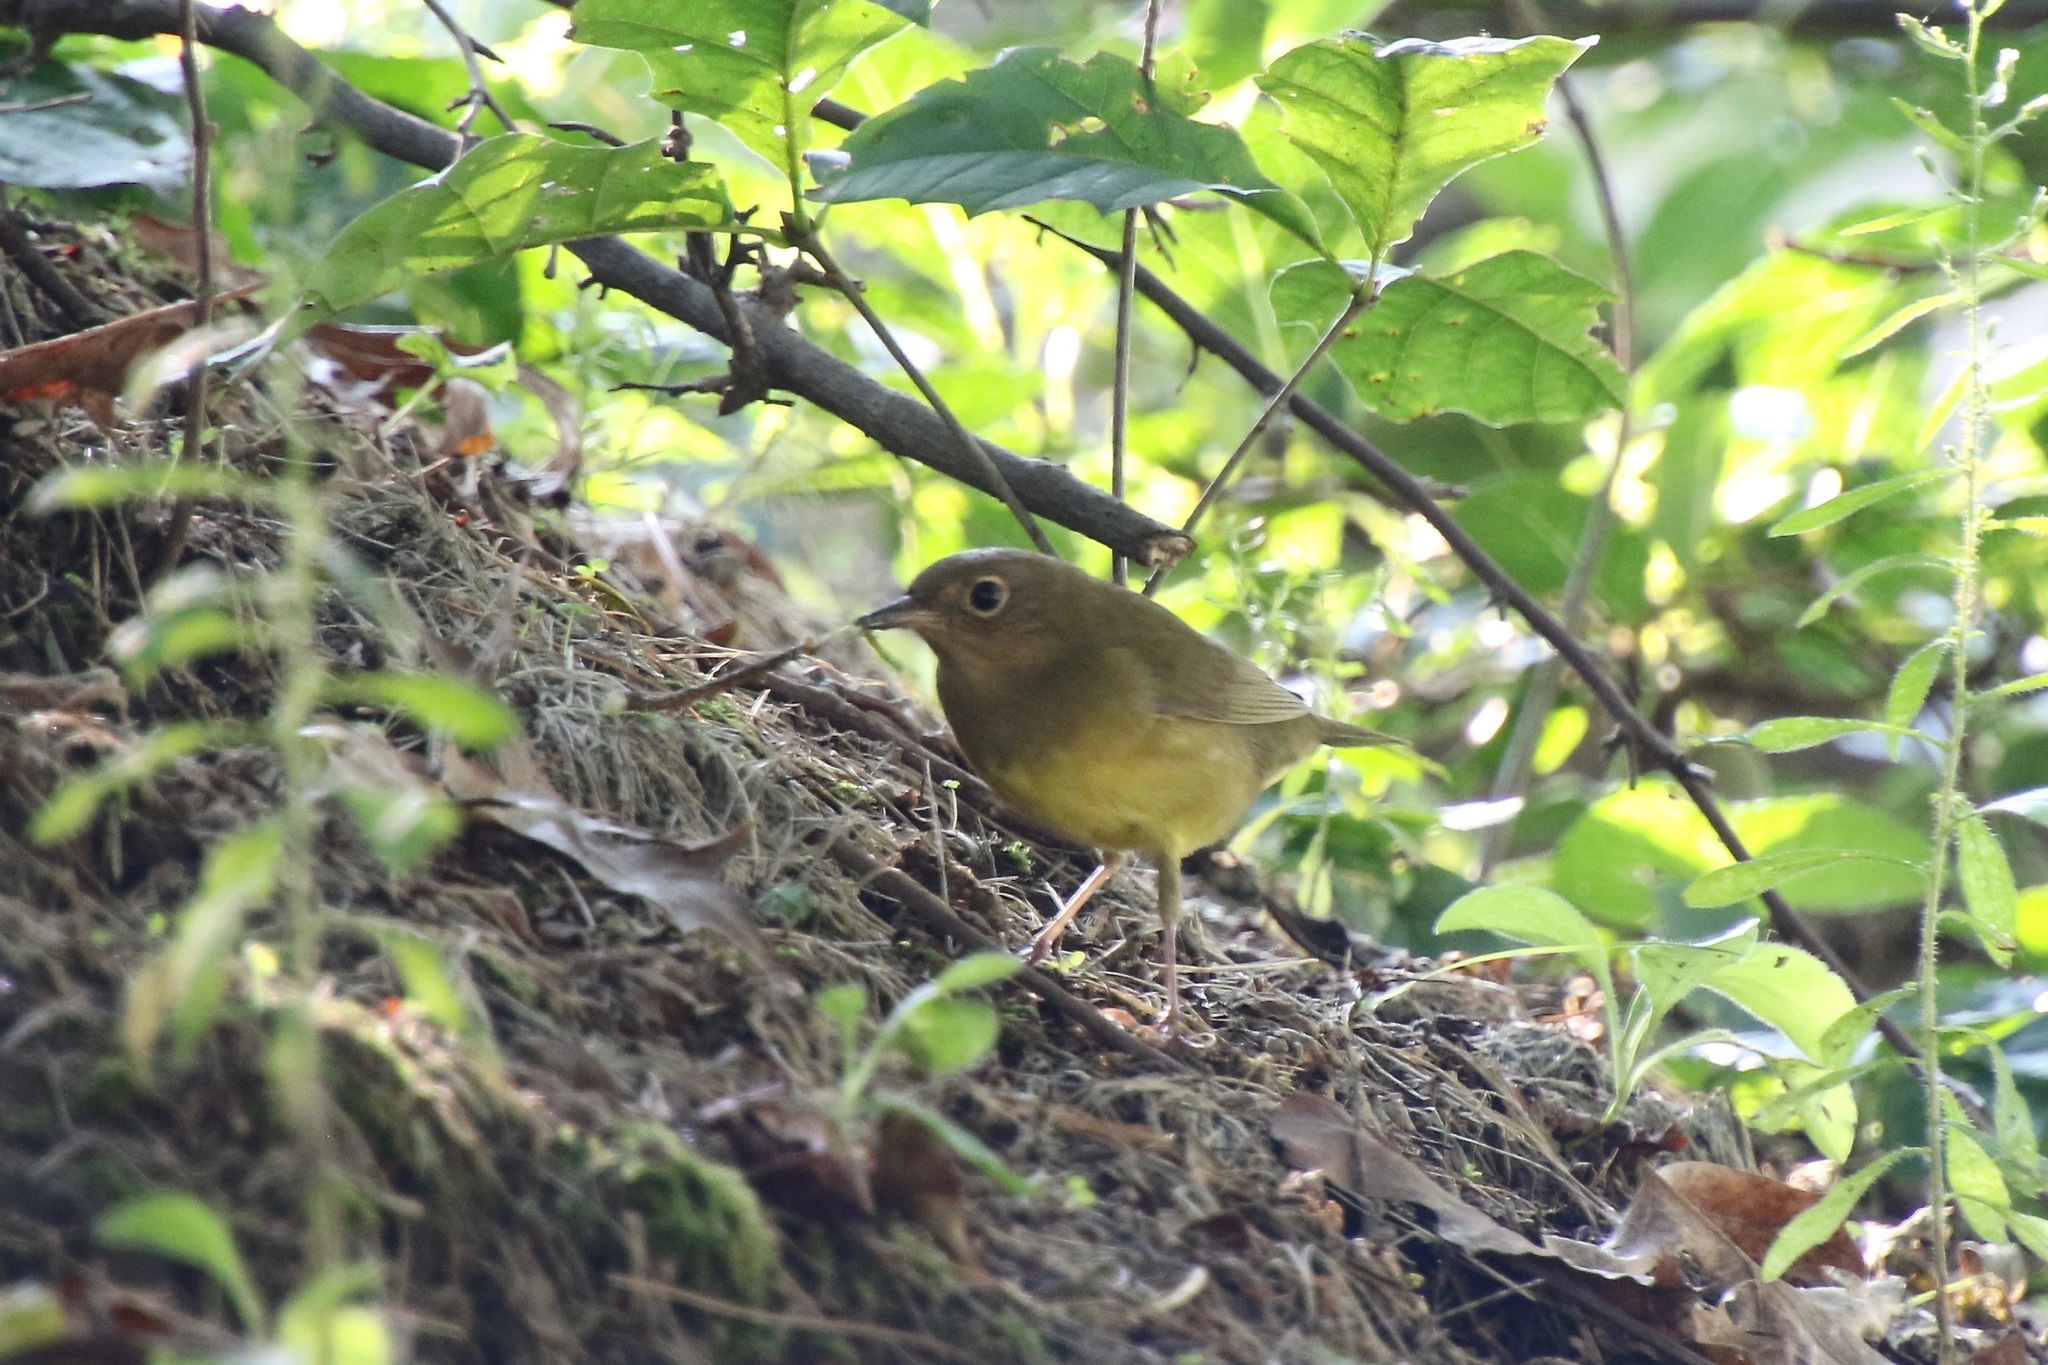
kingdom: Animalia
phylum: Chordata
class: Aves
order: Passeriformes
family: Parulidae
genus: Oporornis
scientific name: Oporornis agilis
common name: Connecticut warbler
